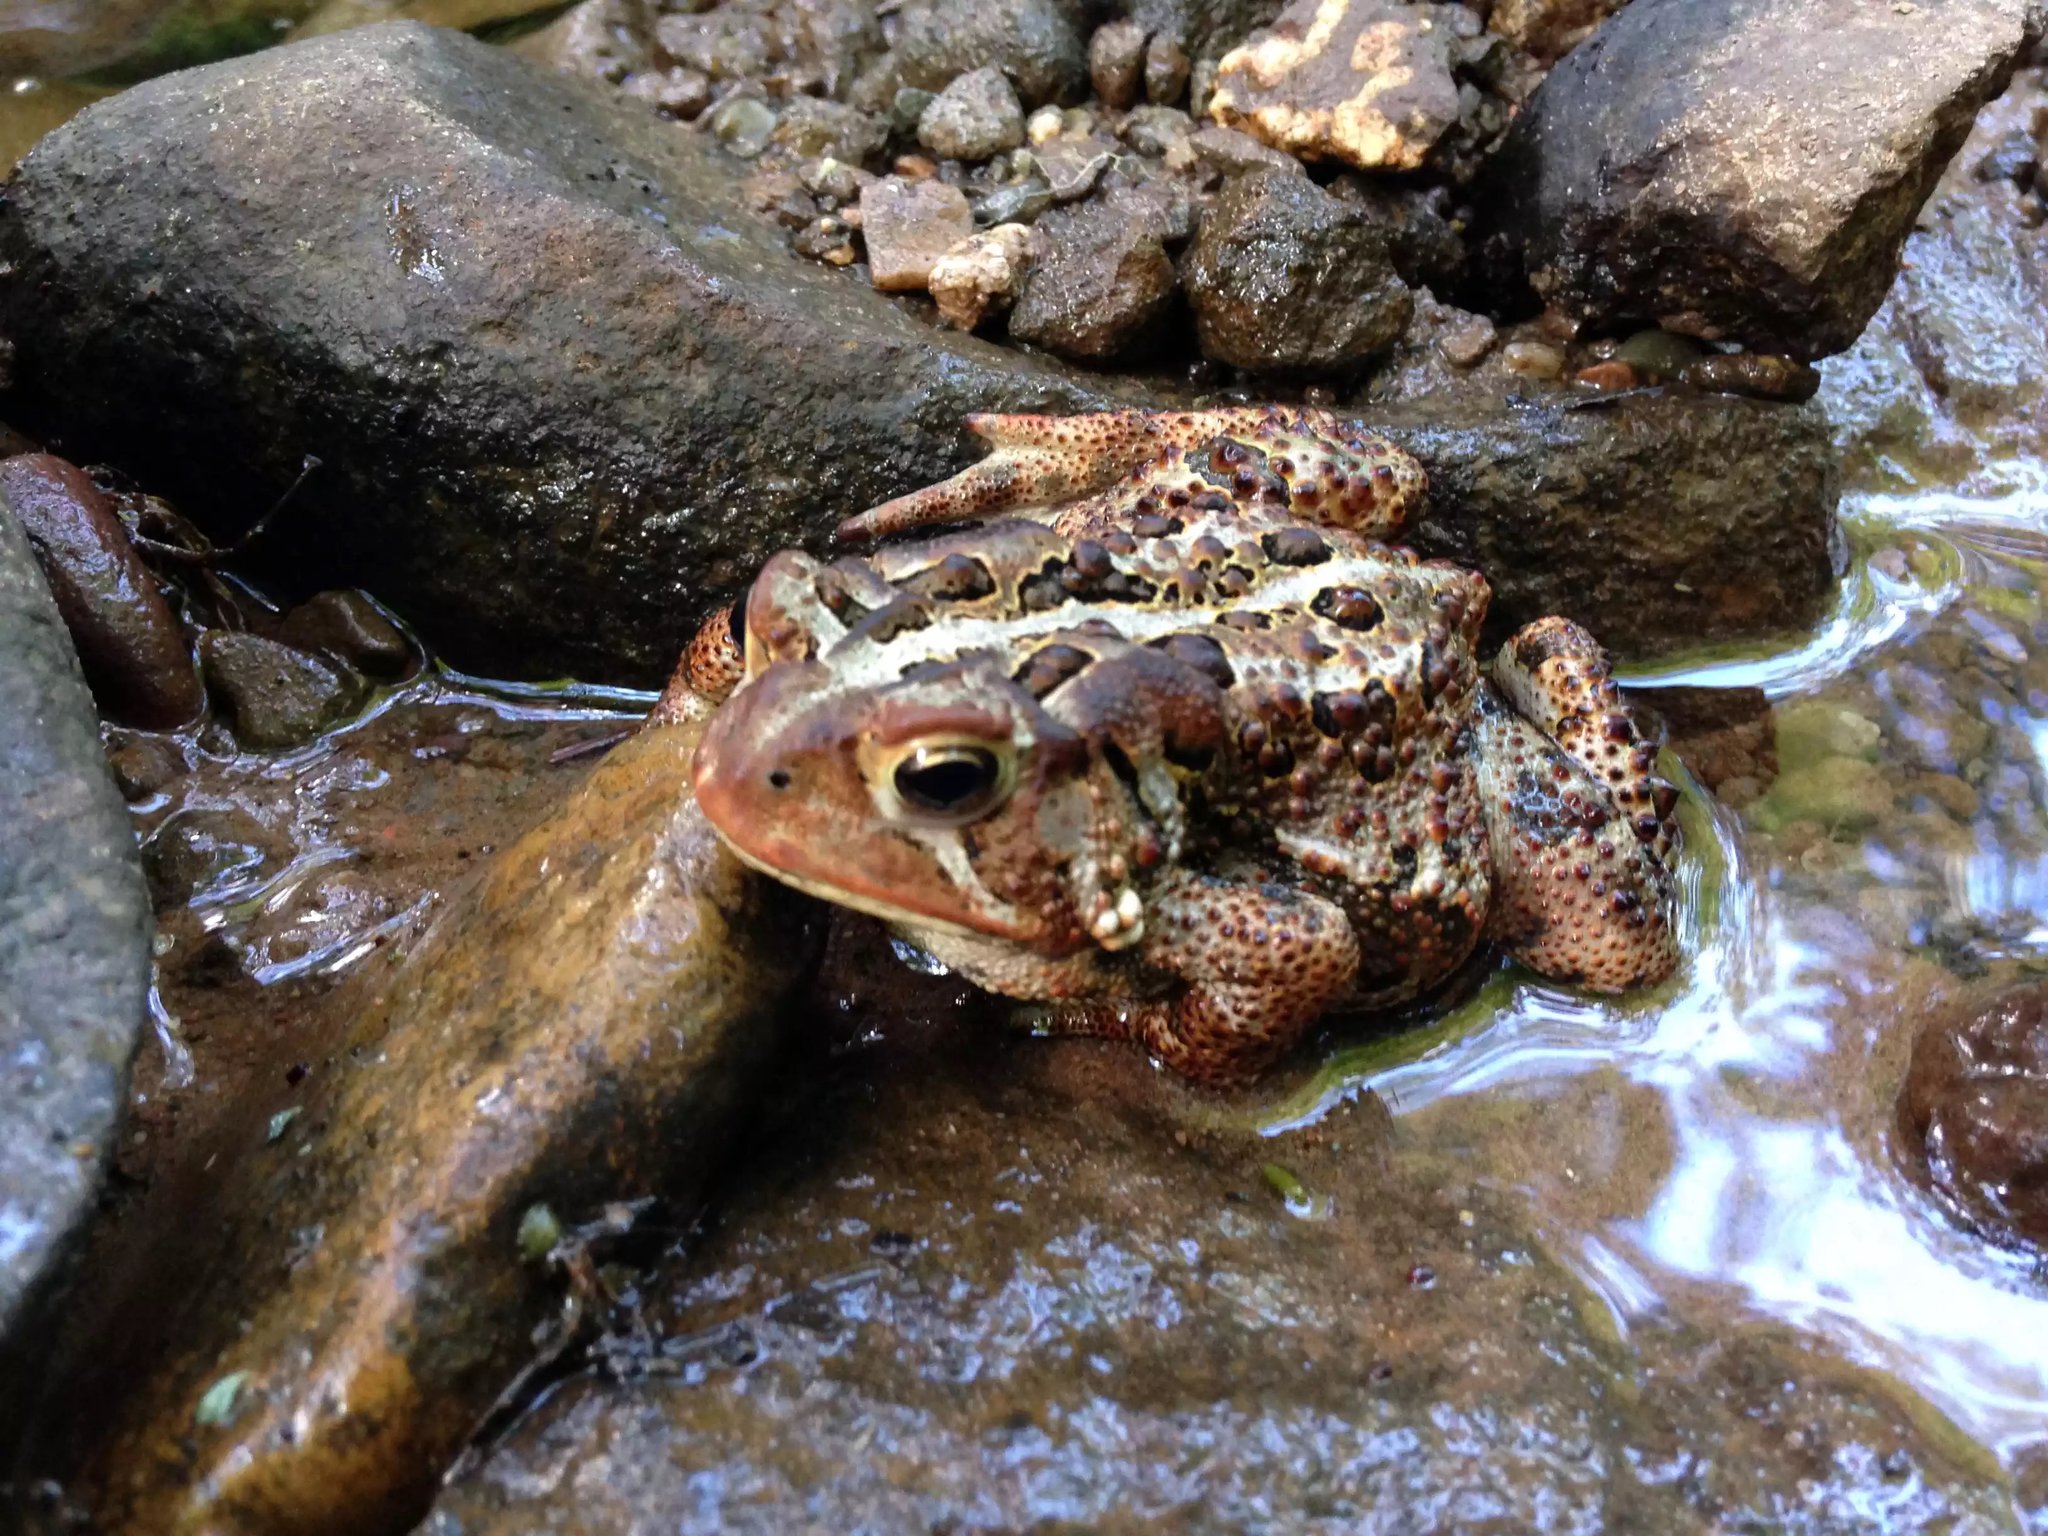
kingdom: Animalia
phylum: Chordata
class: Amphibia
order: Anura
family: Bufonidae
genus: Anaxyrus
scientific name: Anaxyrus americanus
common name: American toad
